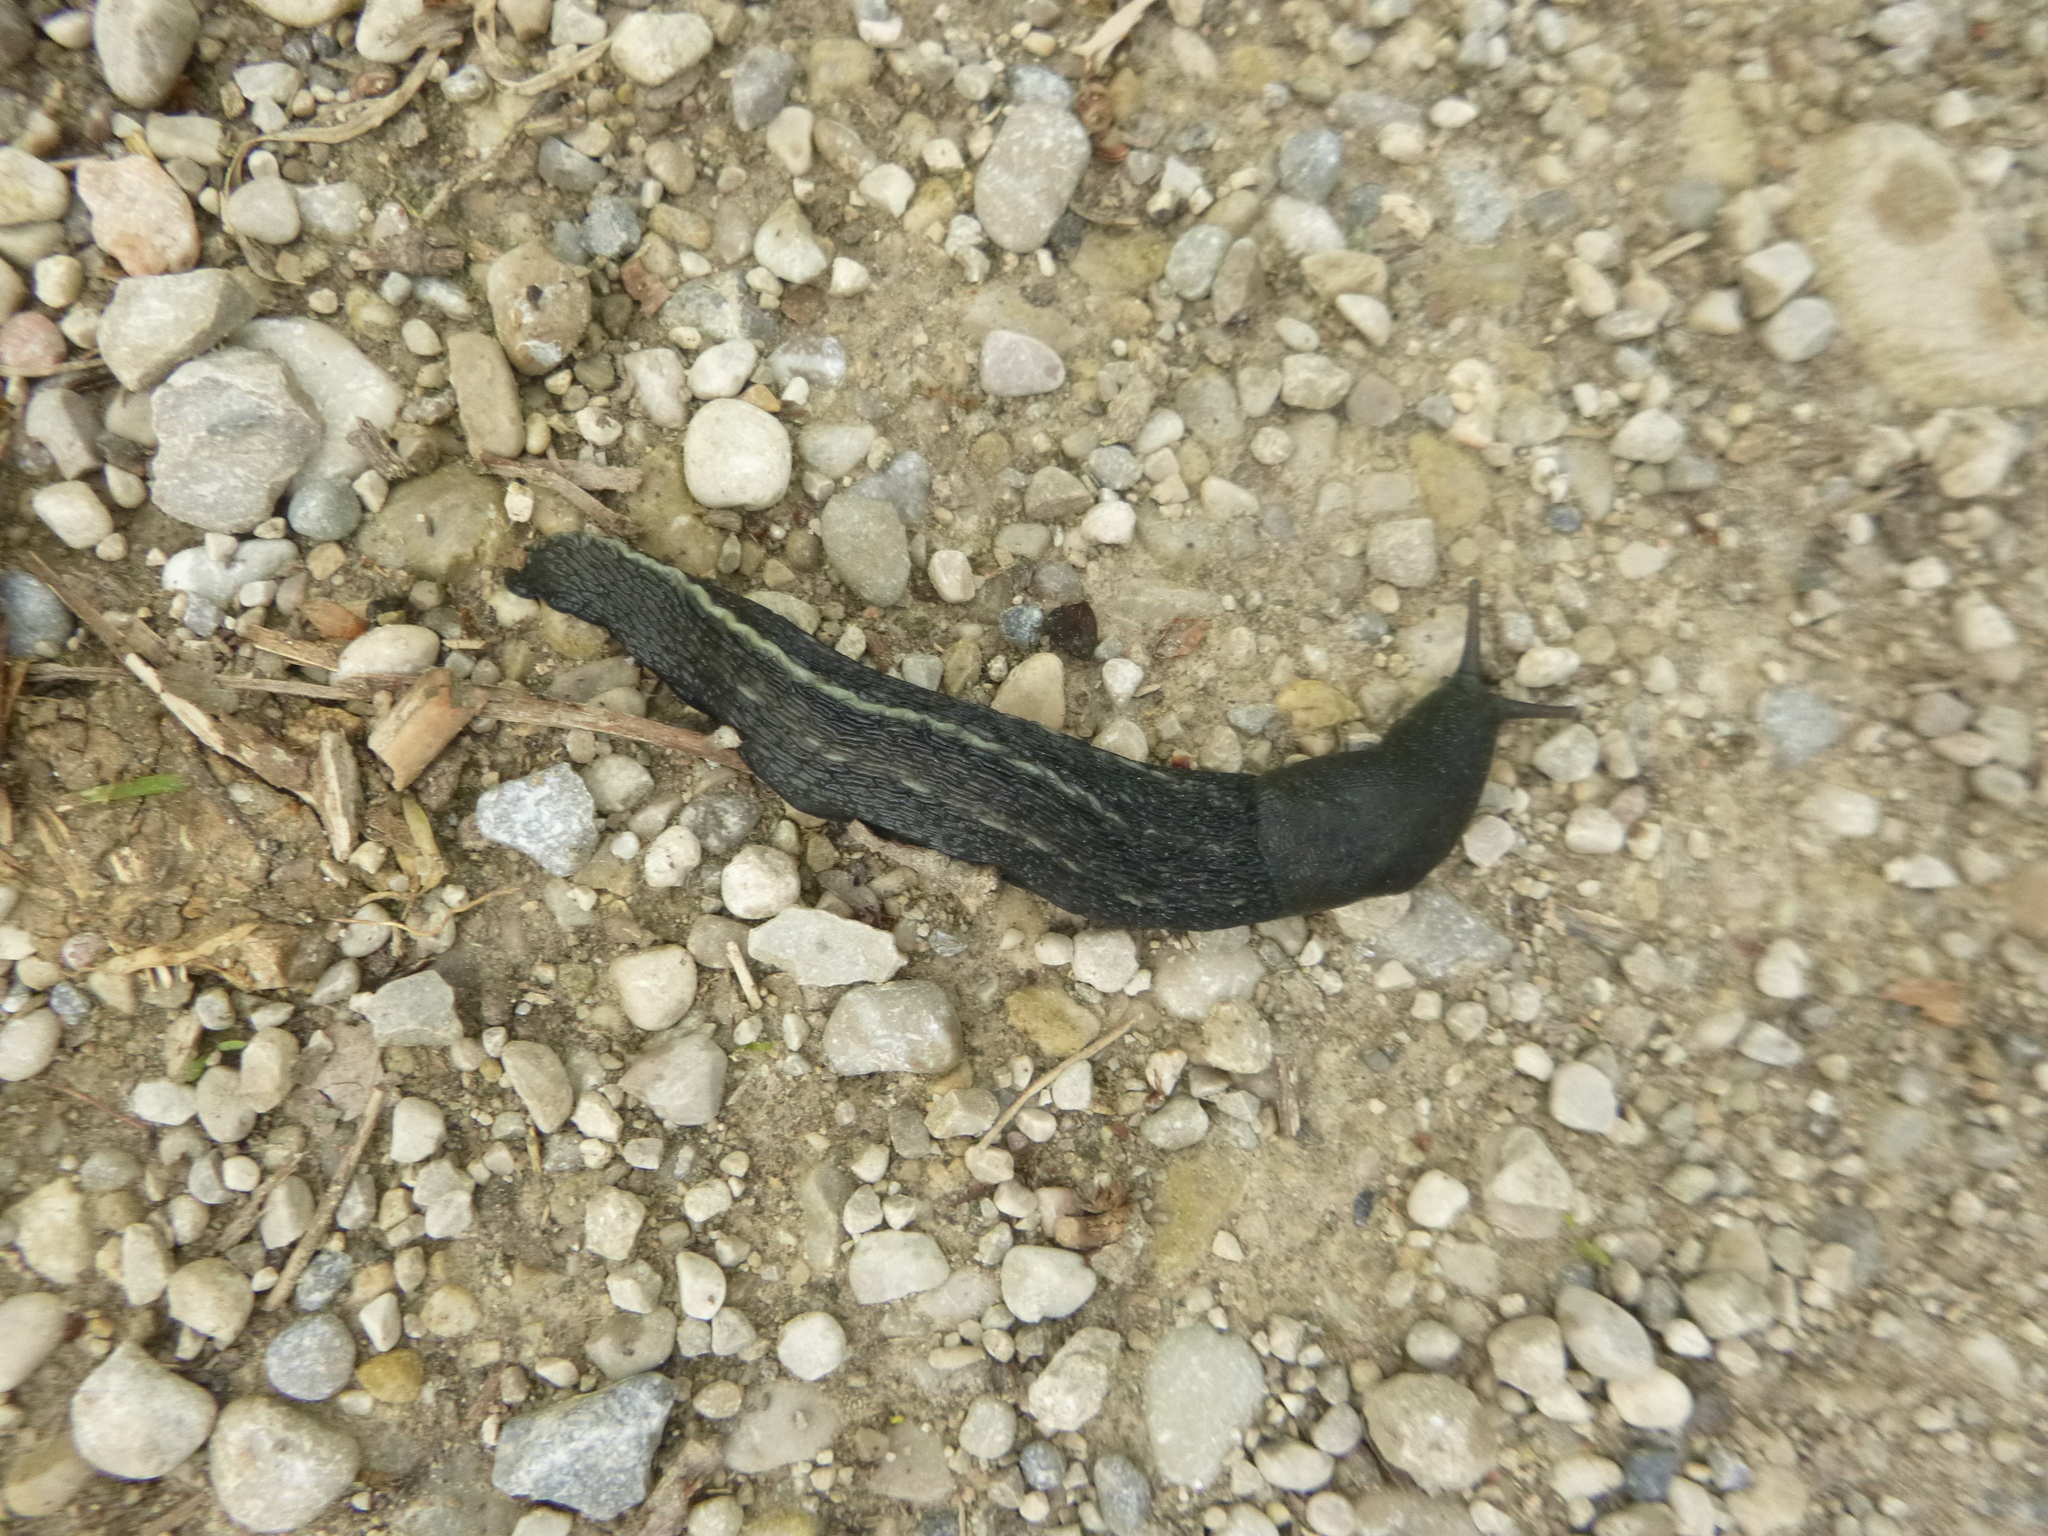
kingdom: Animalia
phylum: Mollusca
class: Gastropoda
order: Stylommatophora
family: Limacidae
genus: Limax
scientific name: Limax cinereoniger
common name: Ash-black slug
